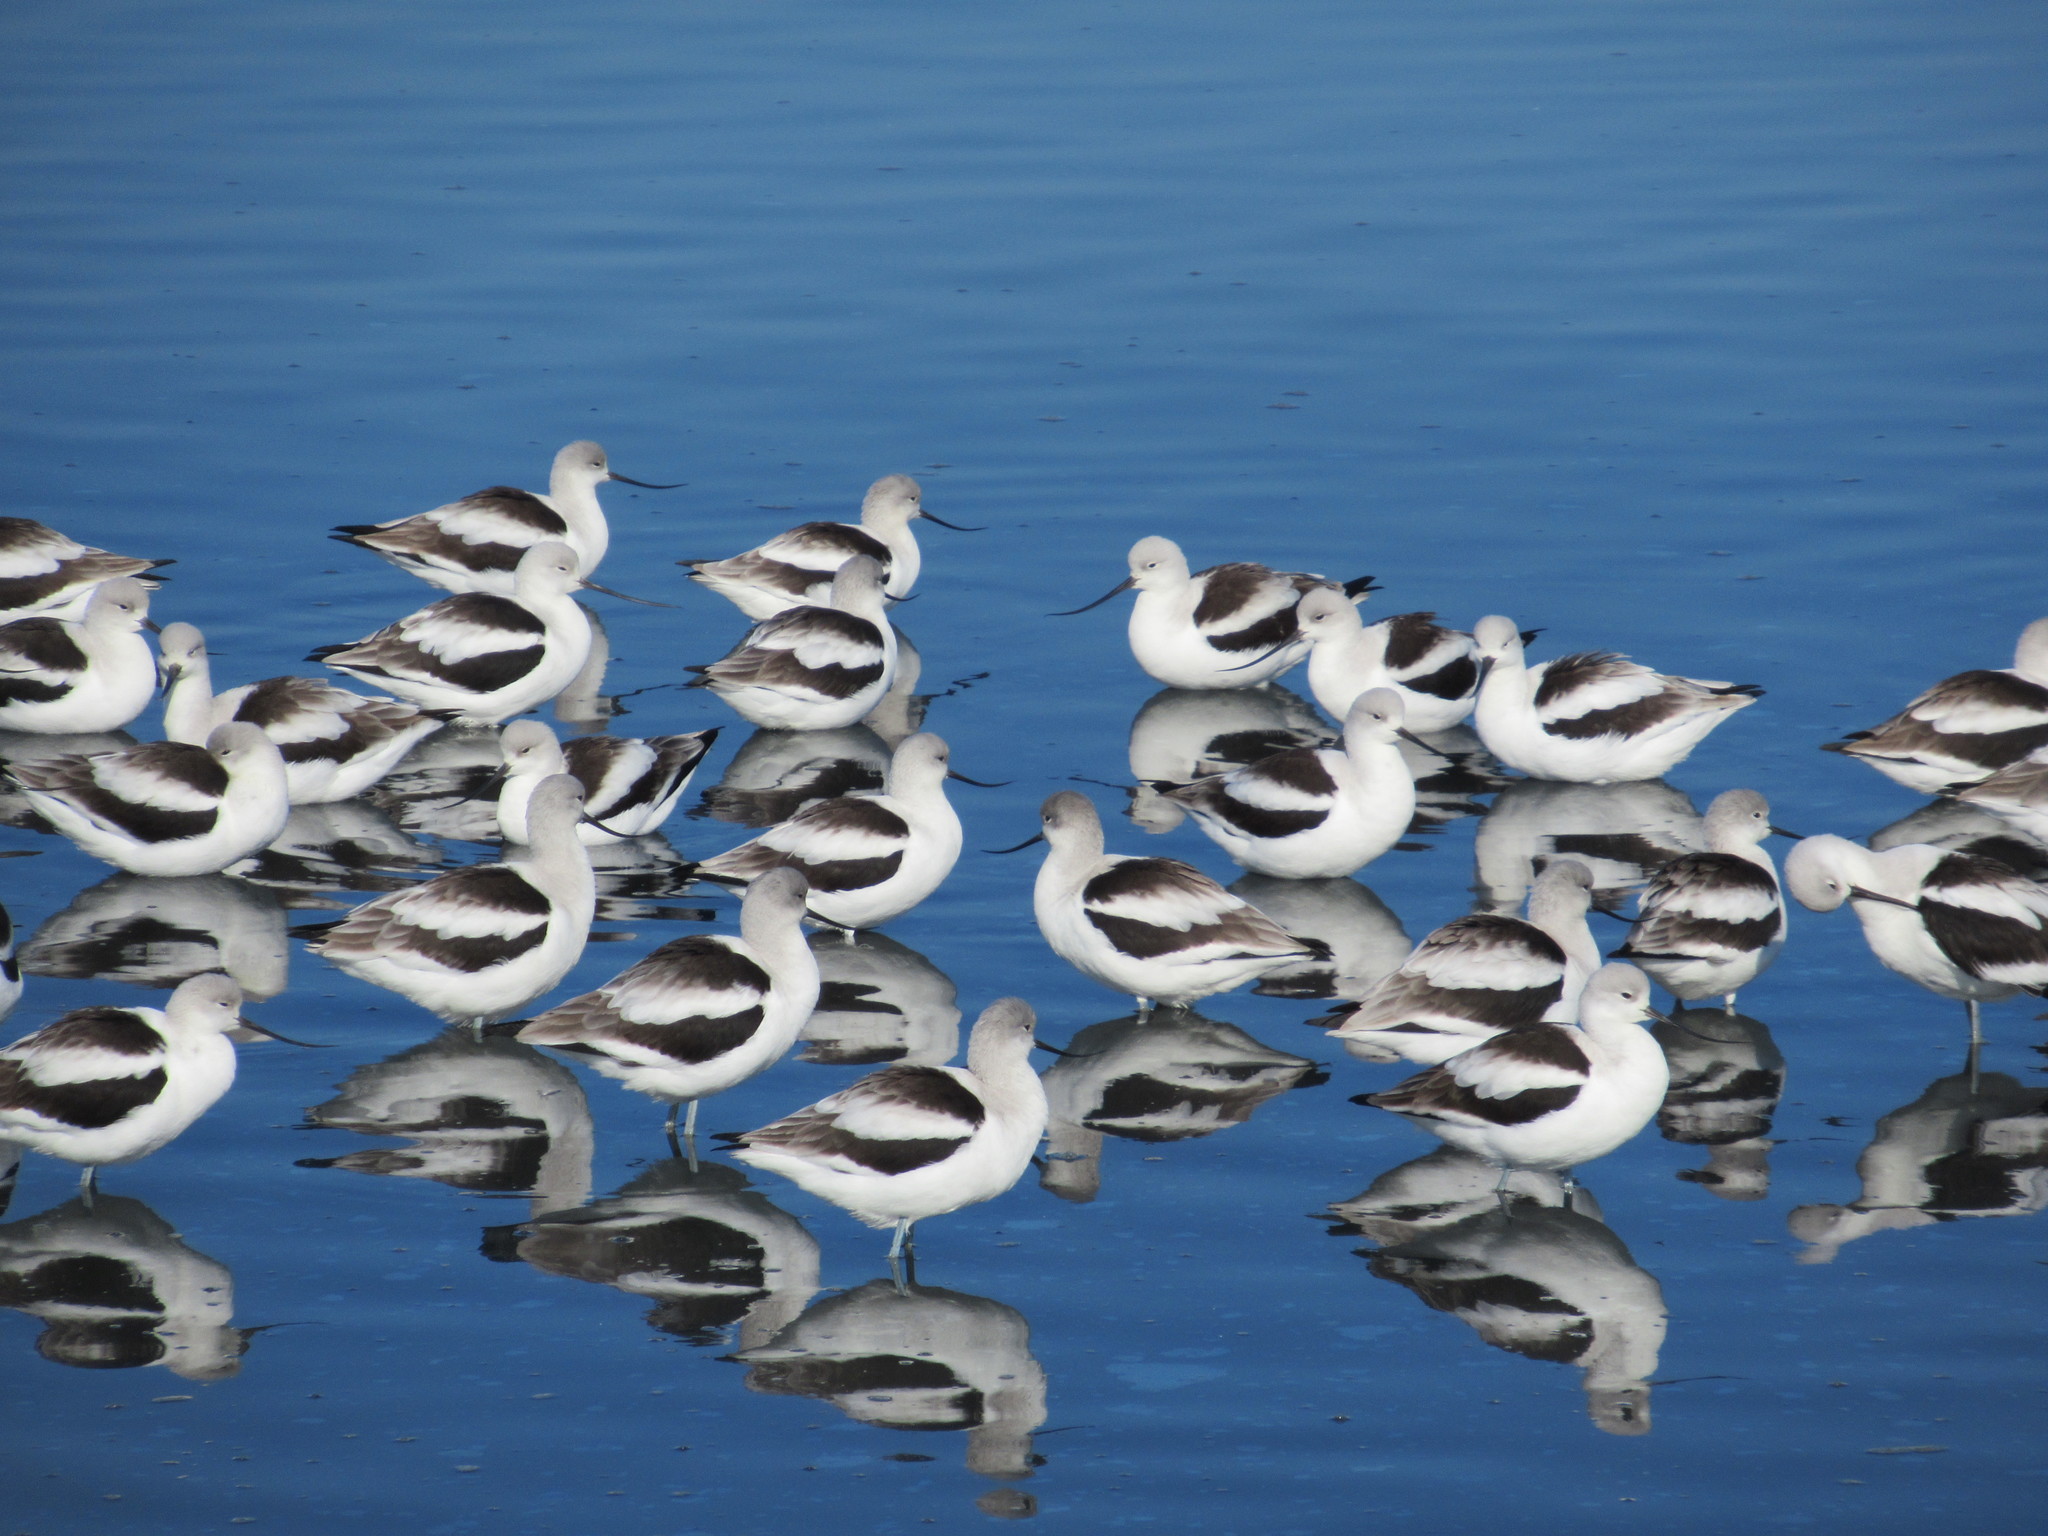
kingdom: Animalia
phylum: Chordata
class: Aves
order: Charadriiformes
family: Recurvirostridae
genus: Recurvirostra
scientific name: Recurvirostra americana
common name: American avocet
